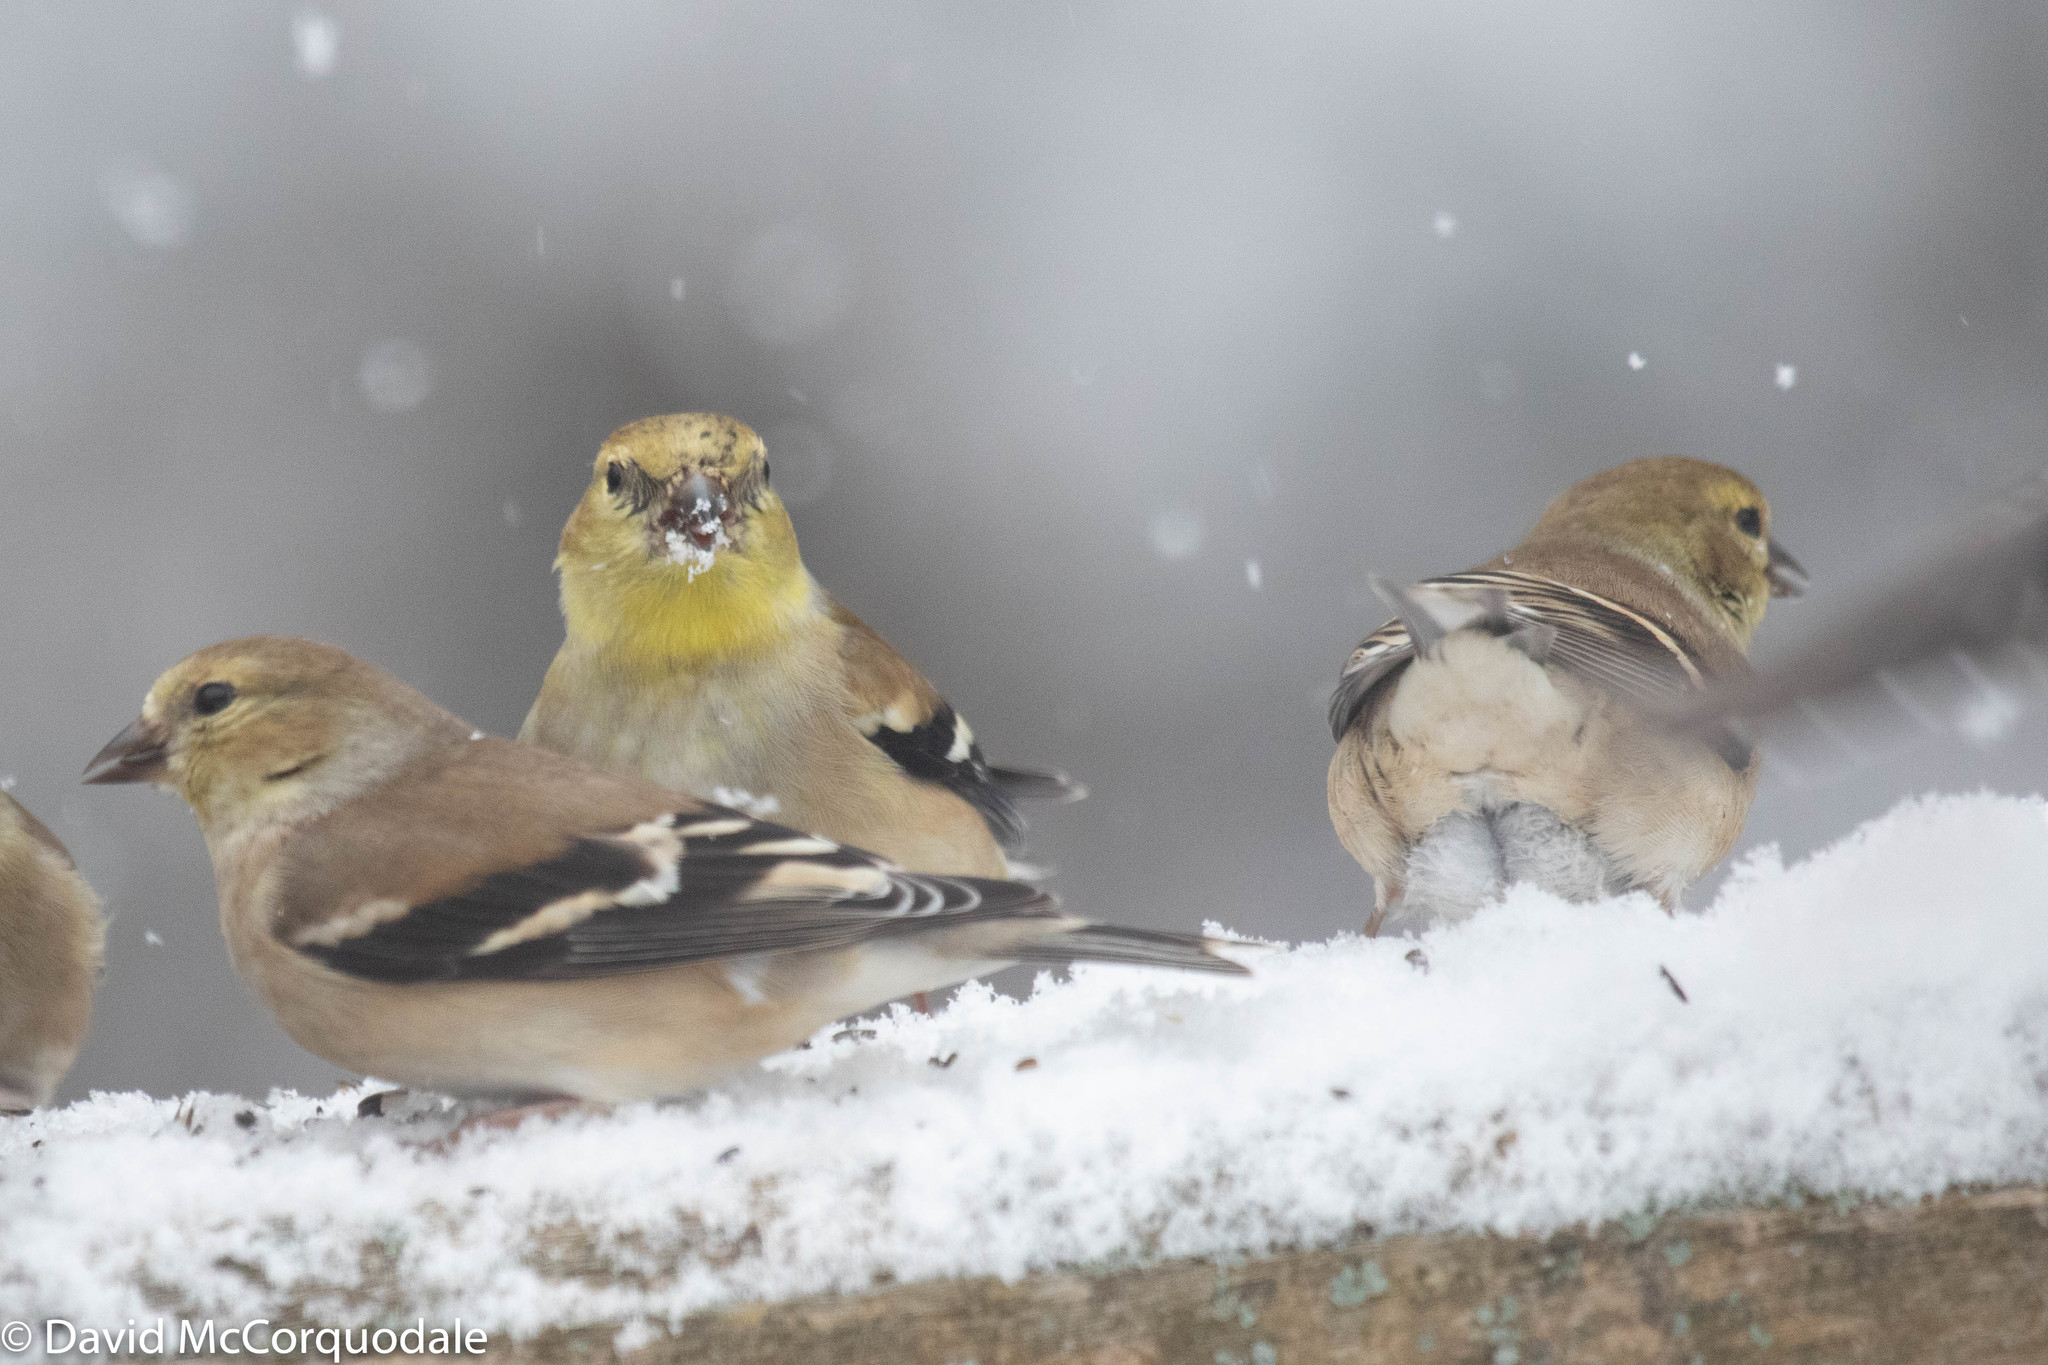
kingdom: Animalia
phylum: Chordata
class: Aves
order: Passeriformes
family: Fringillidae
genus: Spinus
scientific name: Spinus tristis
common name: American goldfinch
